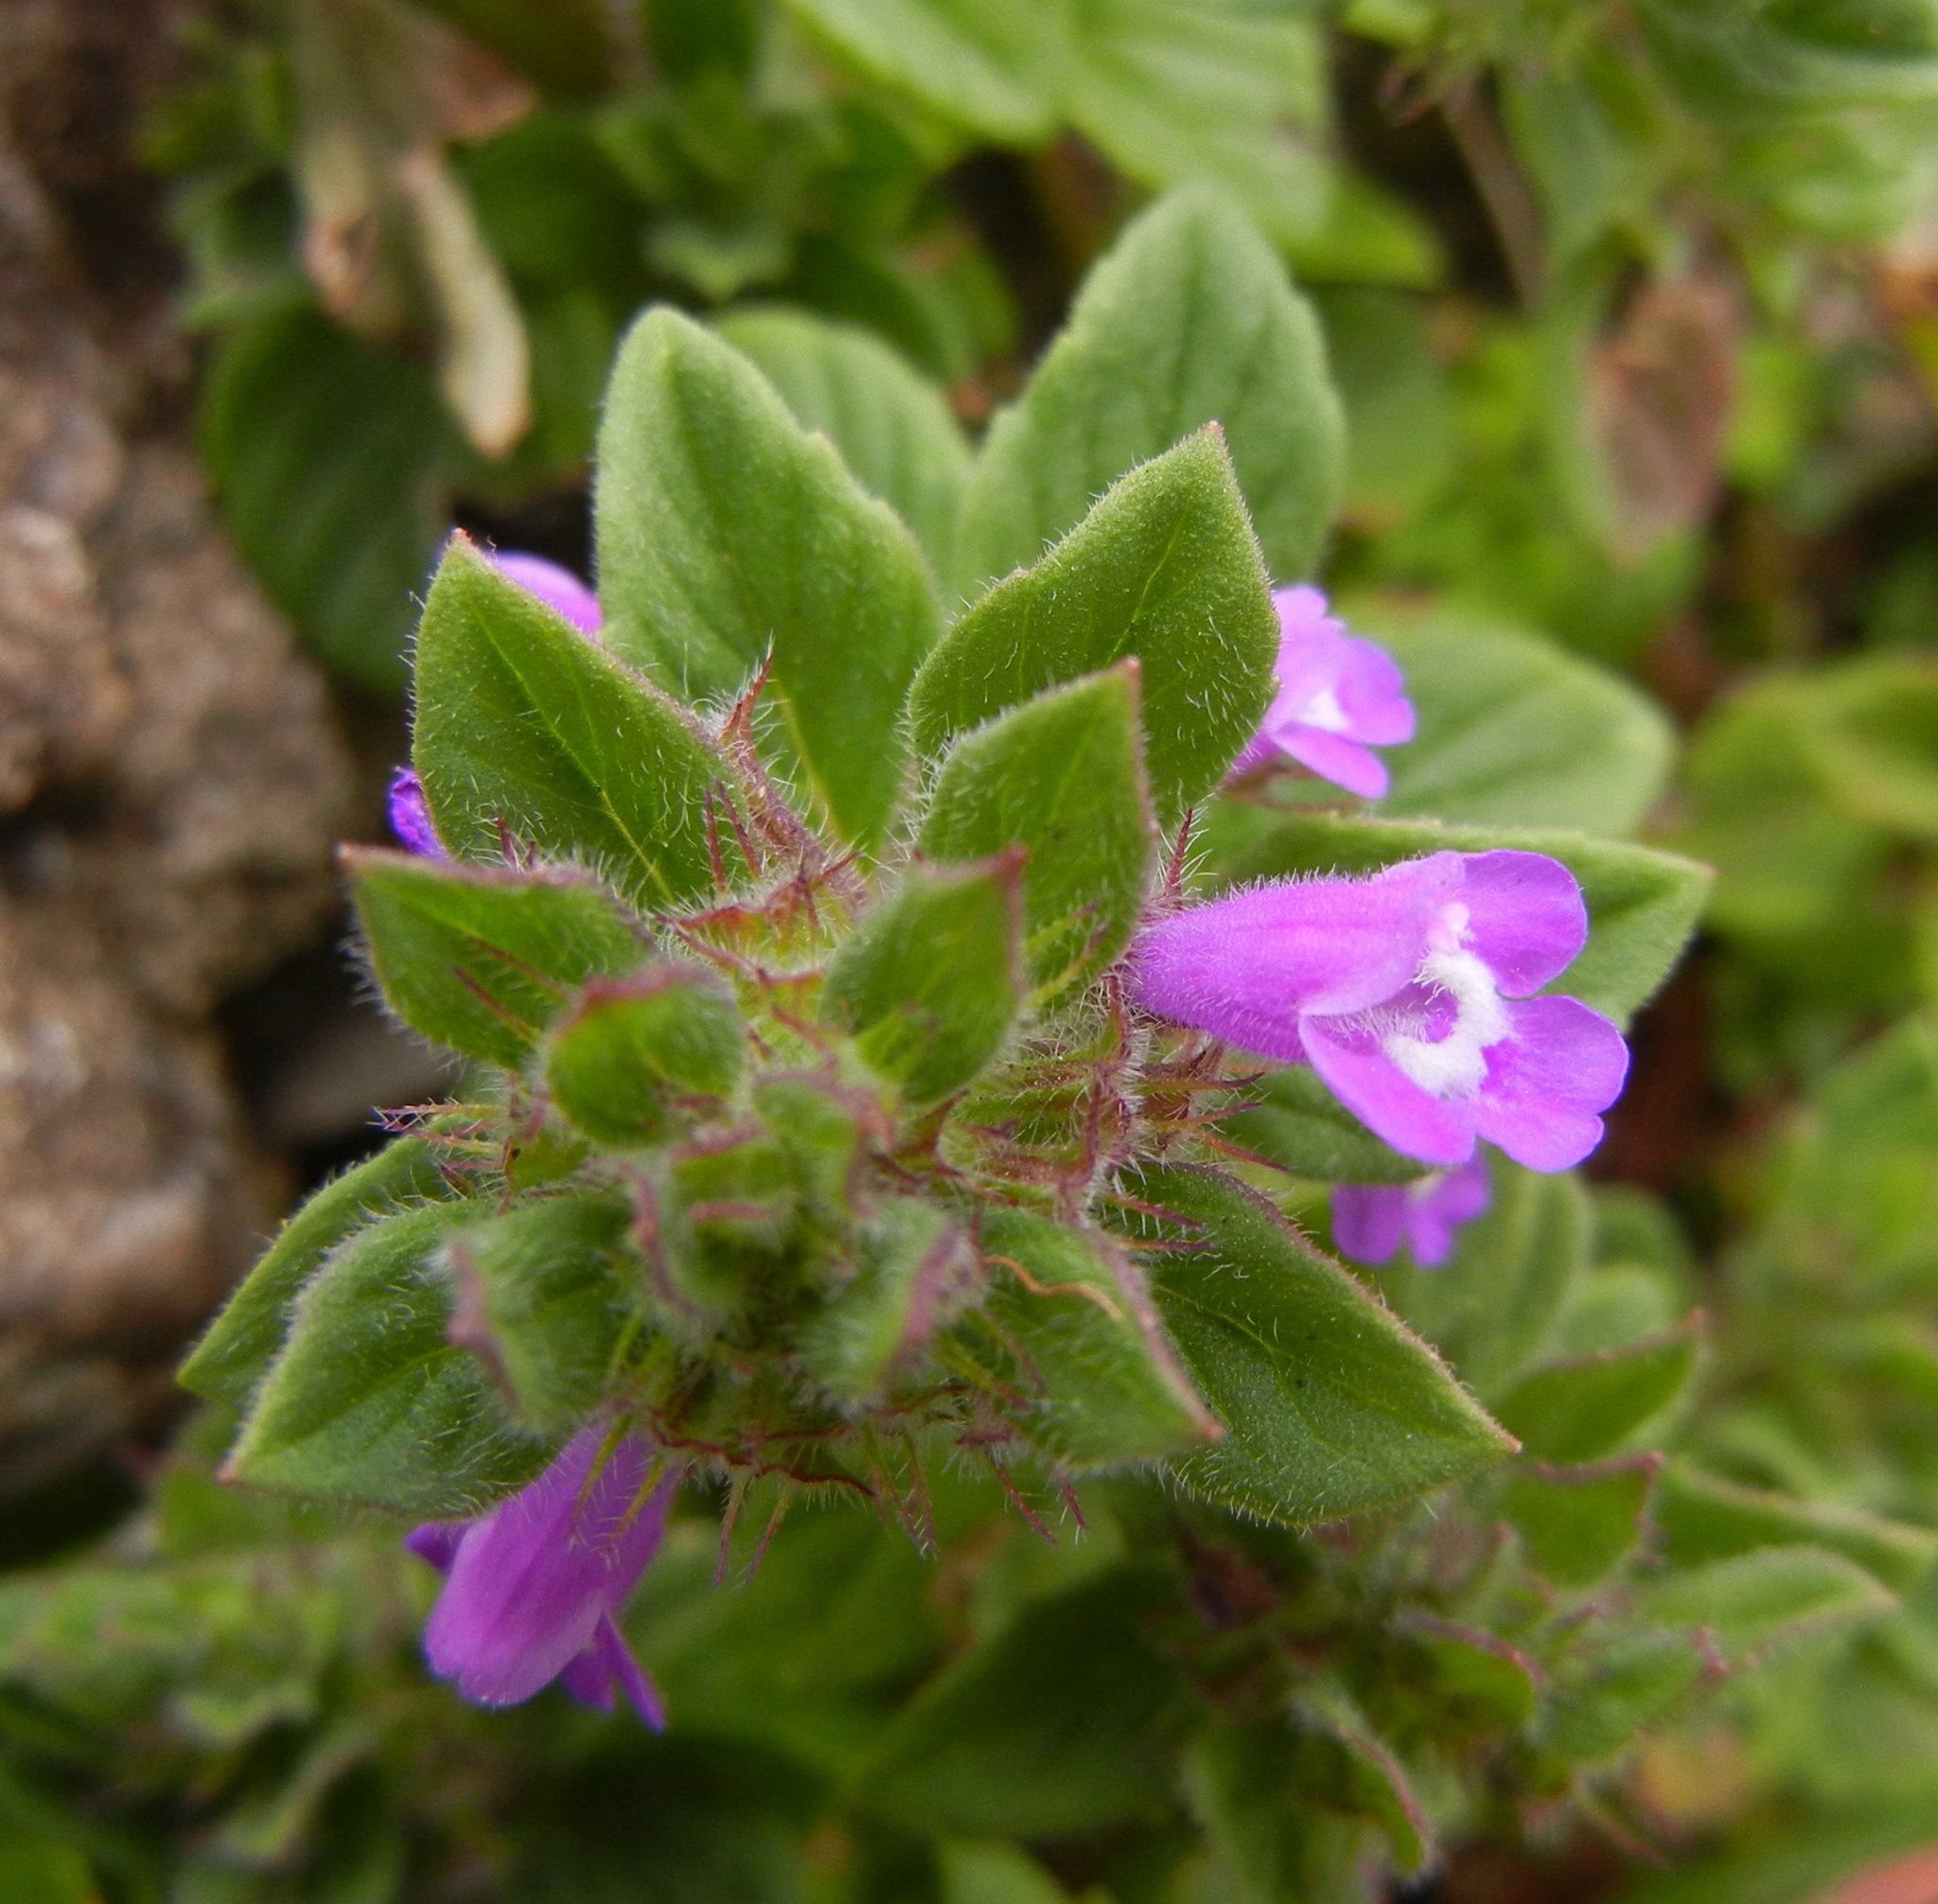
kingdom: Plantae
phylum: Tracheophyta
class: Magnoliopsida
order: Lamiales
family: Lamiaceae
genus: Clinopodium
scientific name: Clinopodium acinos
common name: Basil thyme
